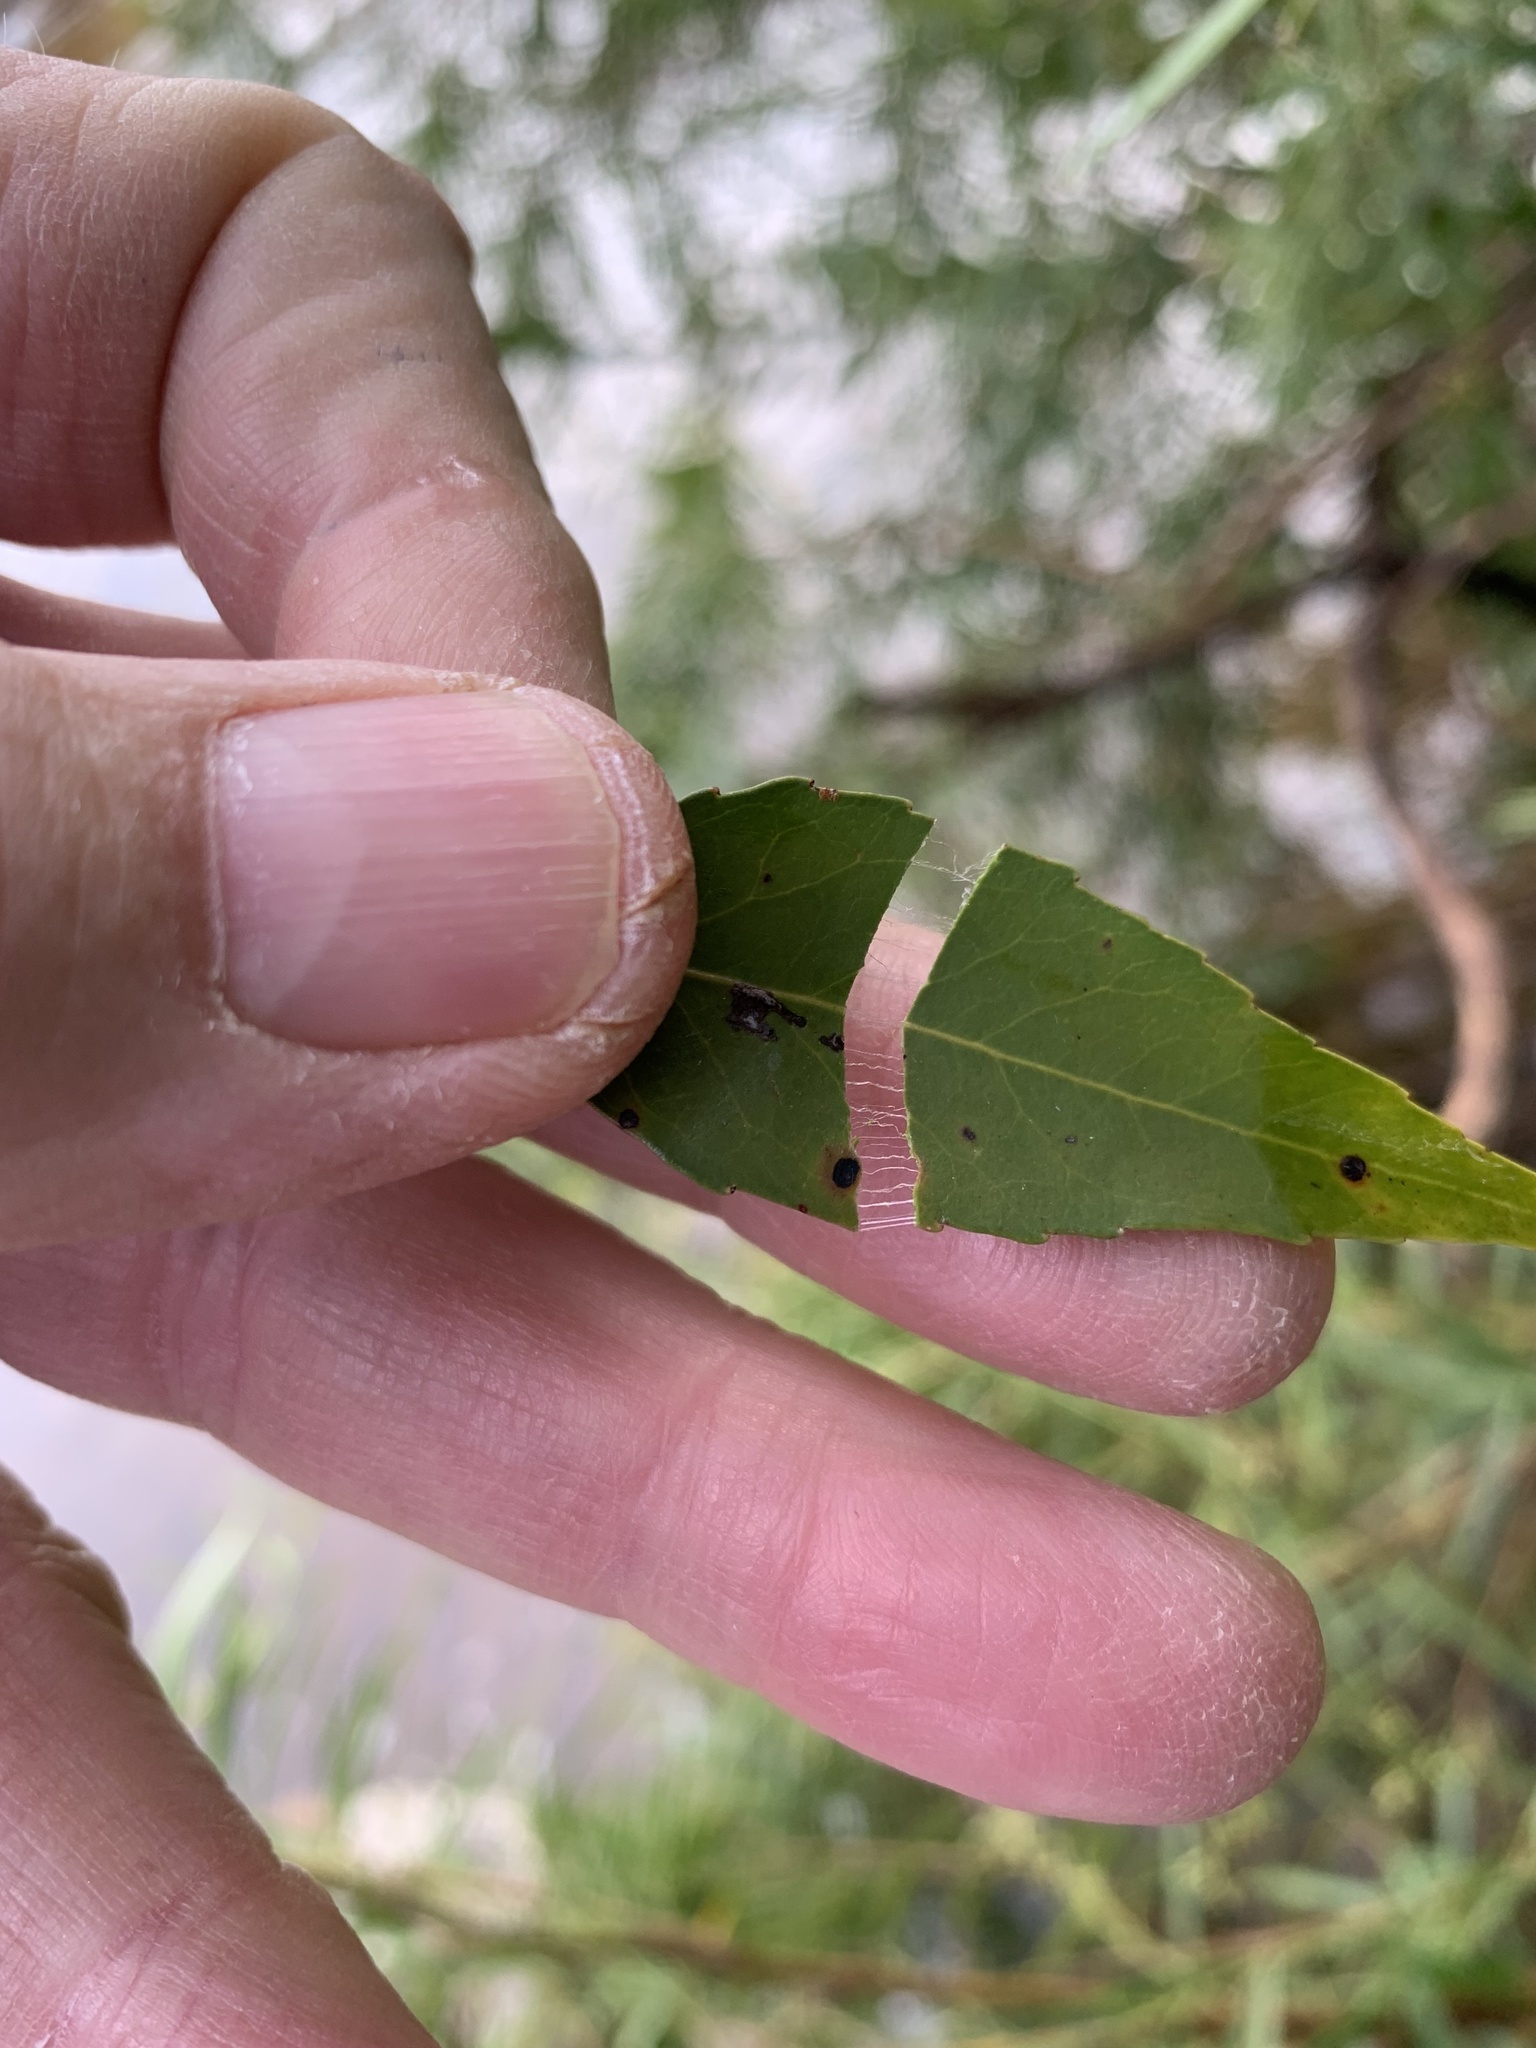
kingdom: Plantae
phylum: Tracheophyta
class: Magnoliopsida
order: Celastrales
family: Celastraceae
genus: Gymnosporia
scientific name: Gymnosporia acuminata
